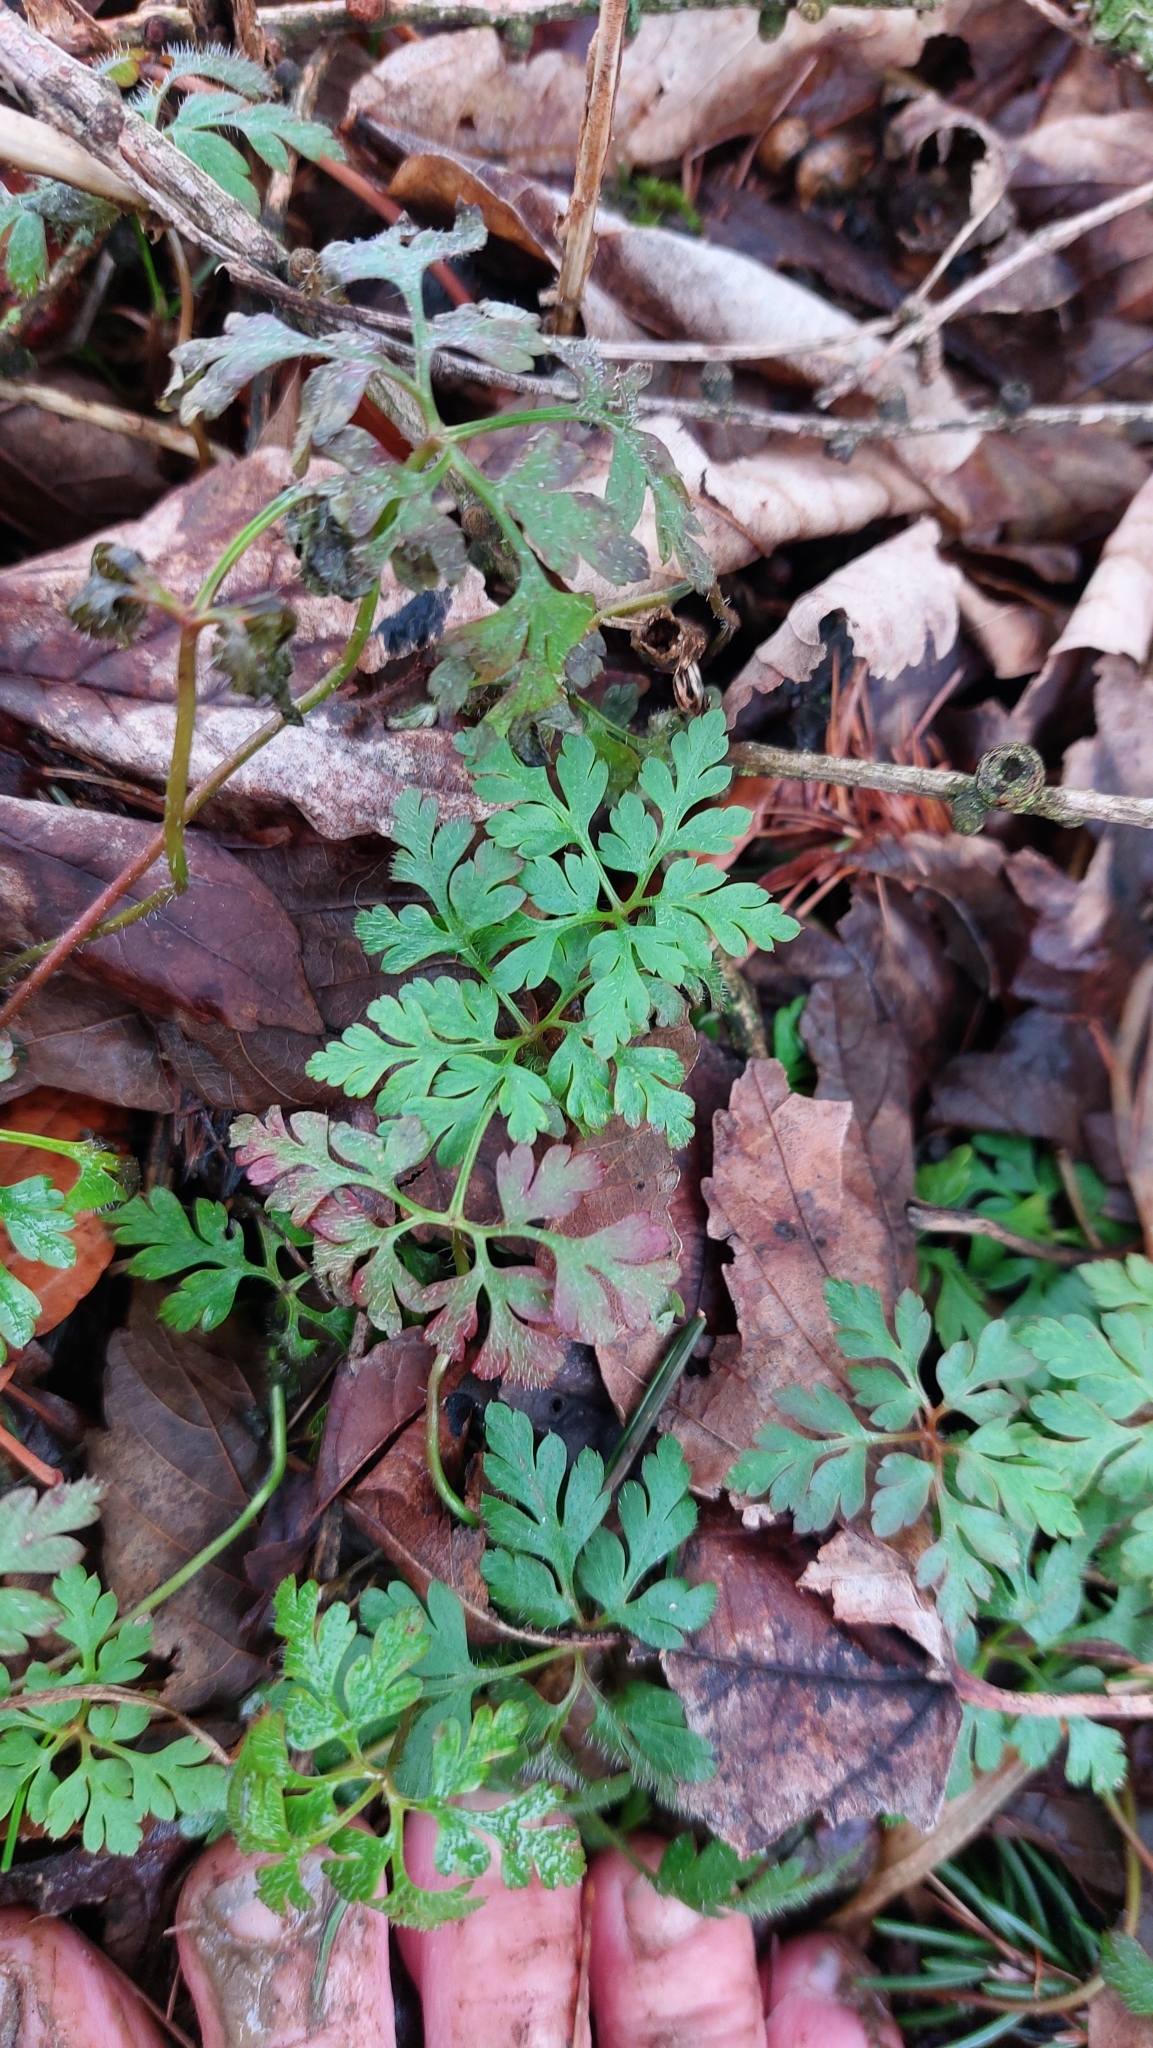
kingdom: Plantae
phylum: Tracheophyta
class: Magnoliopsida
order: Geraniales
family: Geraniaceae
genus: Geranium
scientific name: Geranium robertianum
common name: Herb-robert
